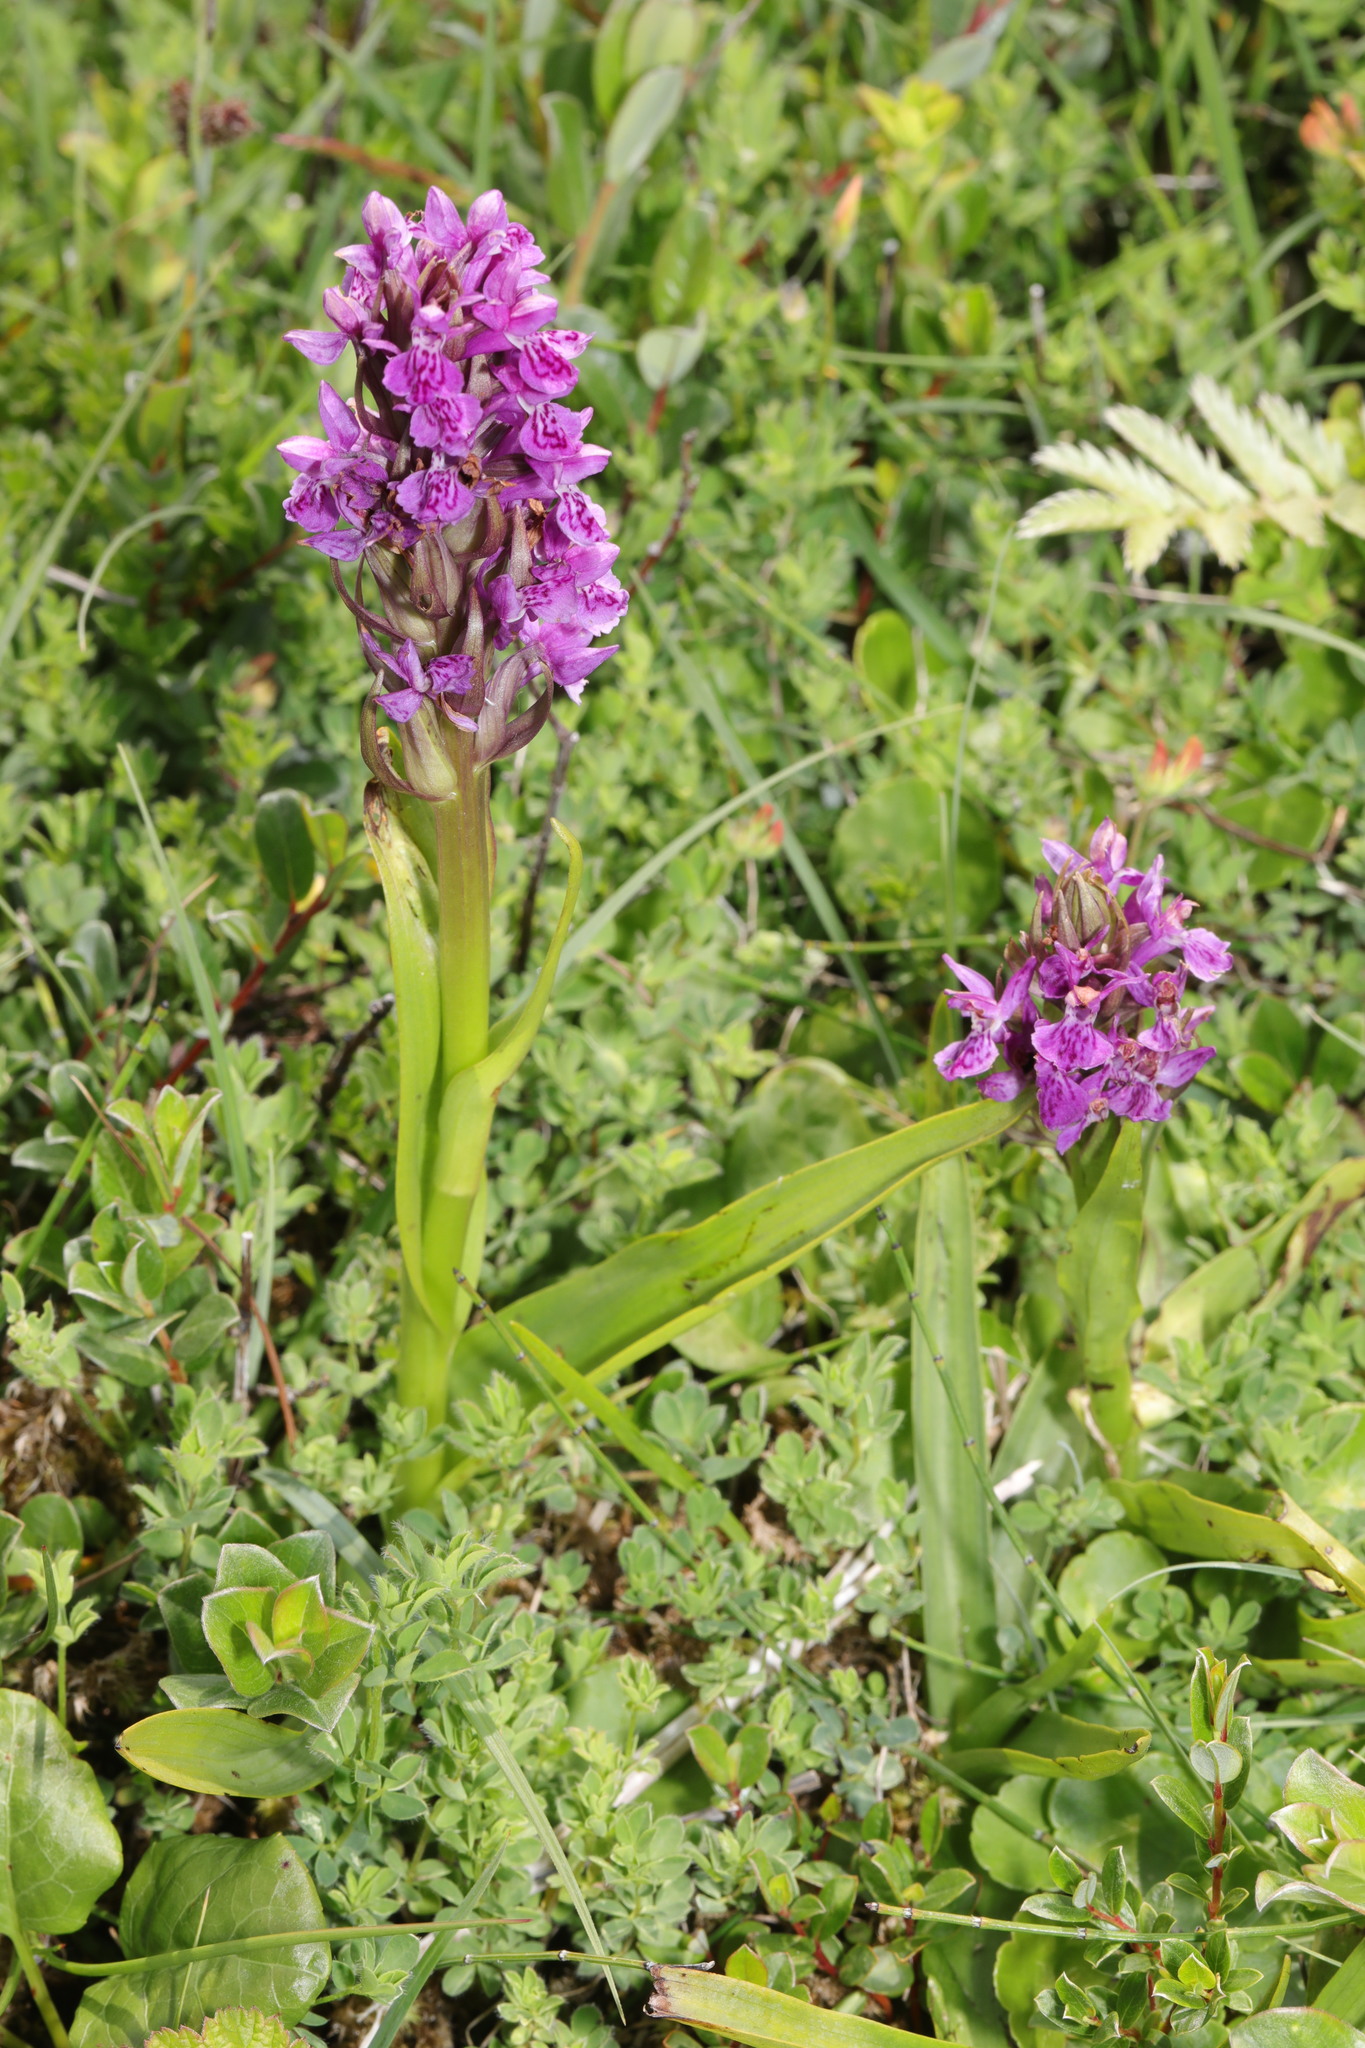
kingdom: Plantae
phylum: Tracheophyta
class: Liliopsida
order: Asparagales
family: Orchidaceae
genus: Dactylorhiza
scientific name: Dactylorhiza majalis
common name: Marsh orchid
